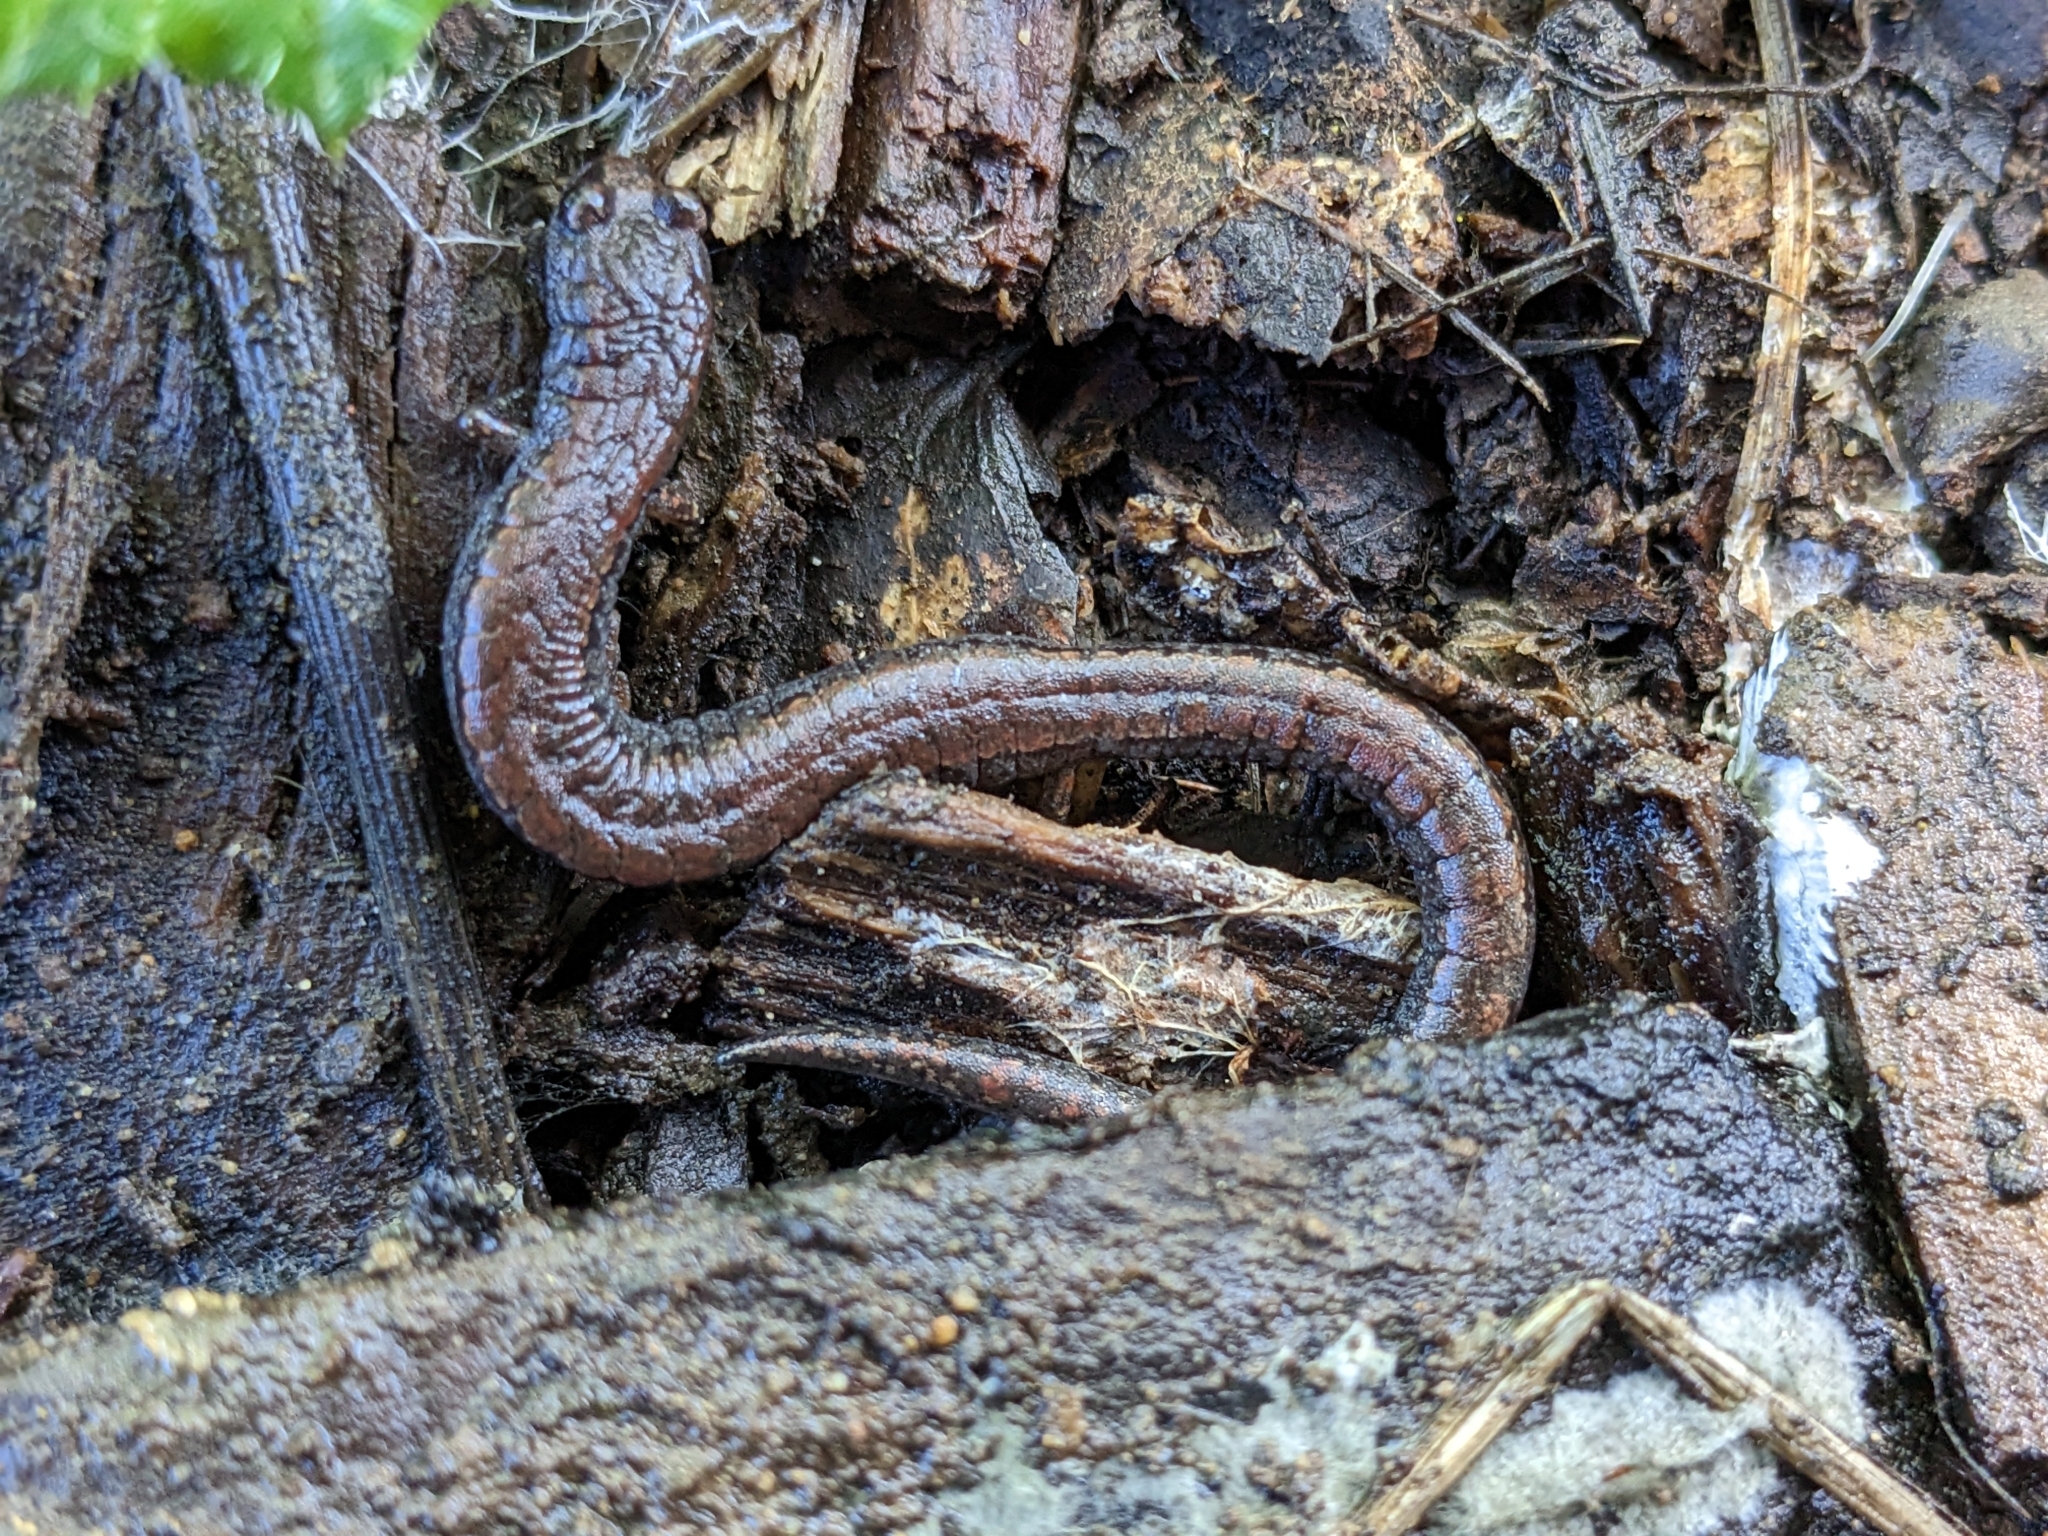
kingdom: Animalia
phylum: Chordata
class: Amphibia
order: Caudata
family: Plethodontidae
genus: Batrachoseps
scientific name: Batrachoseps attenuatus
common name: California slender salamander
